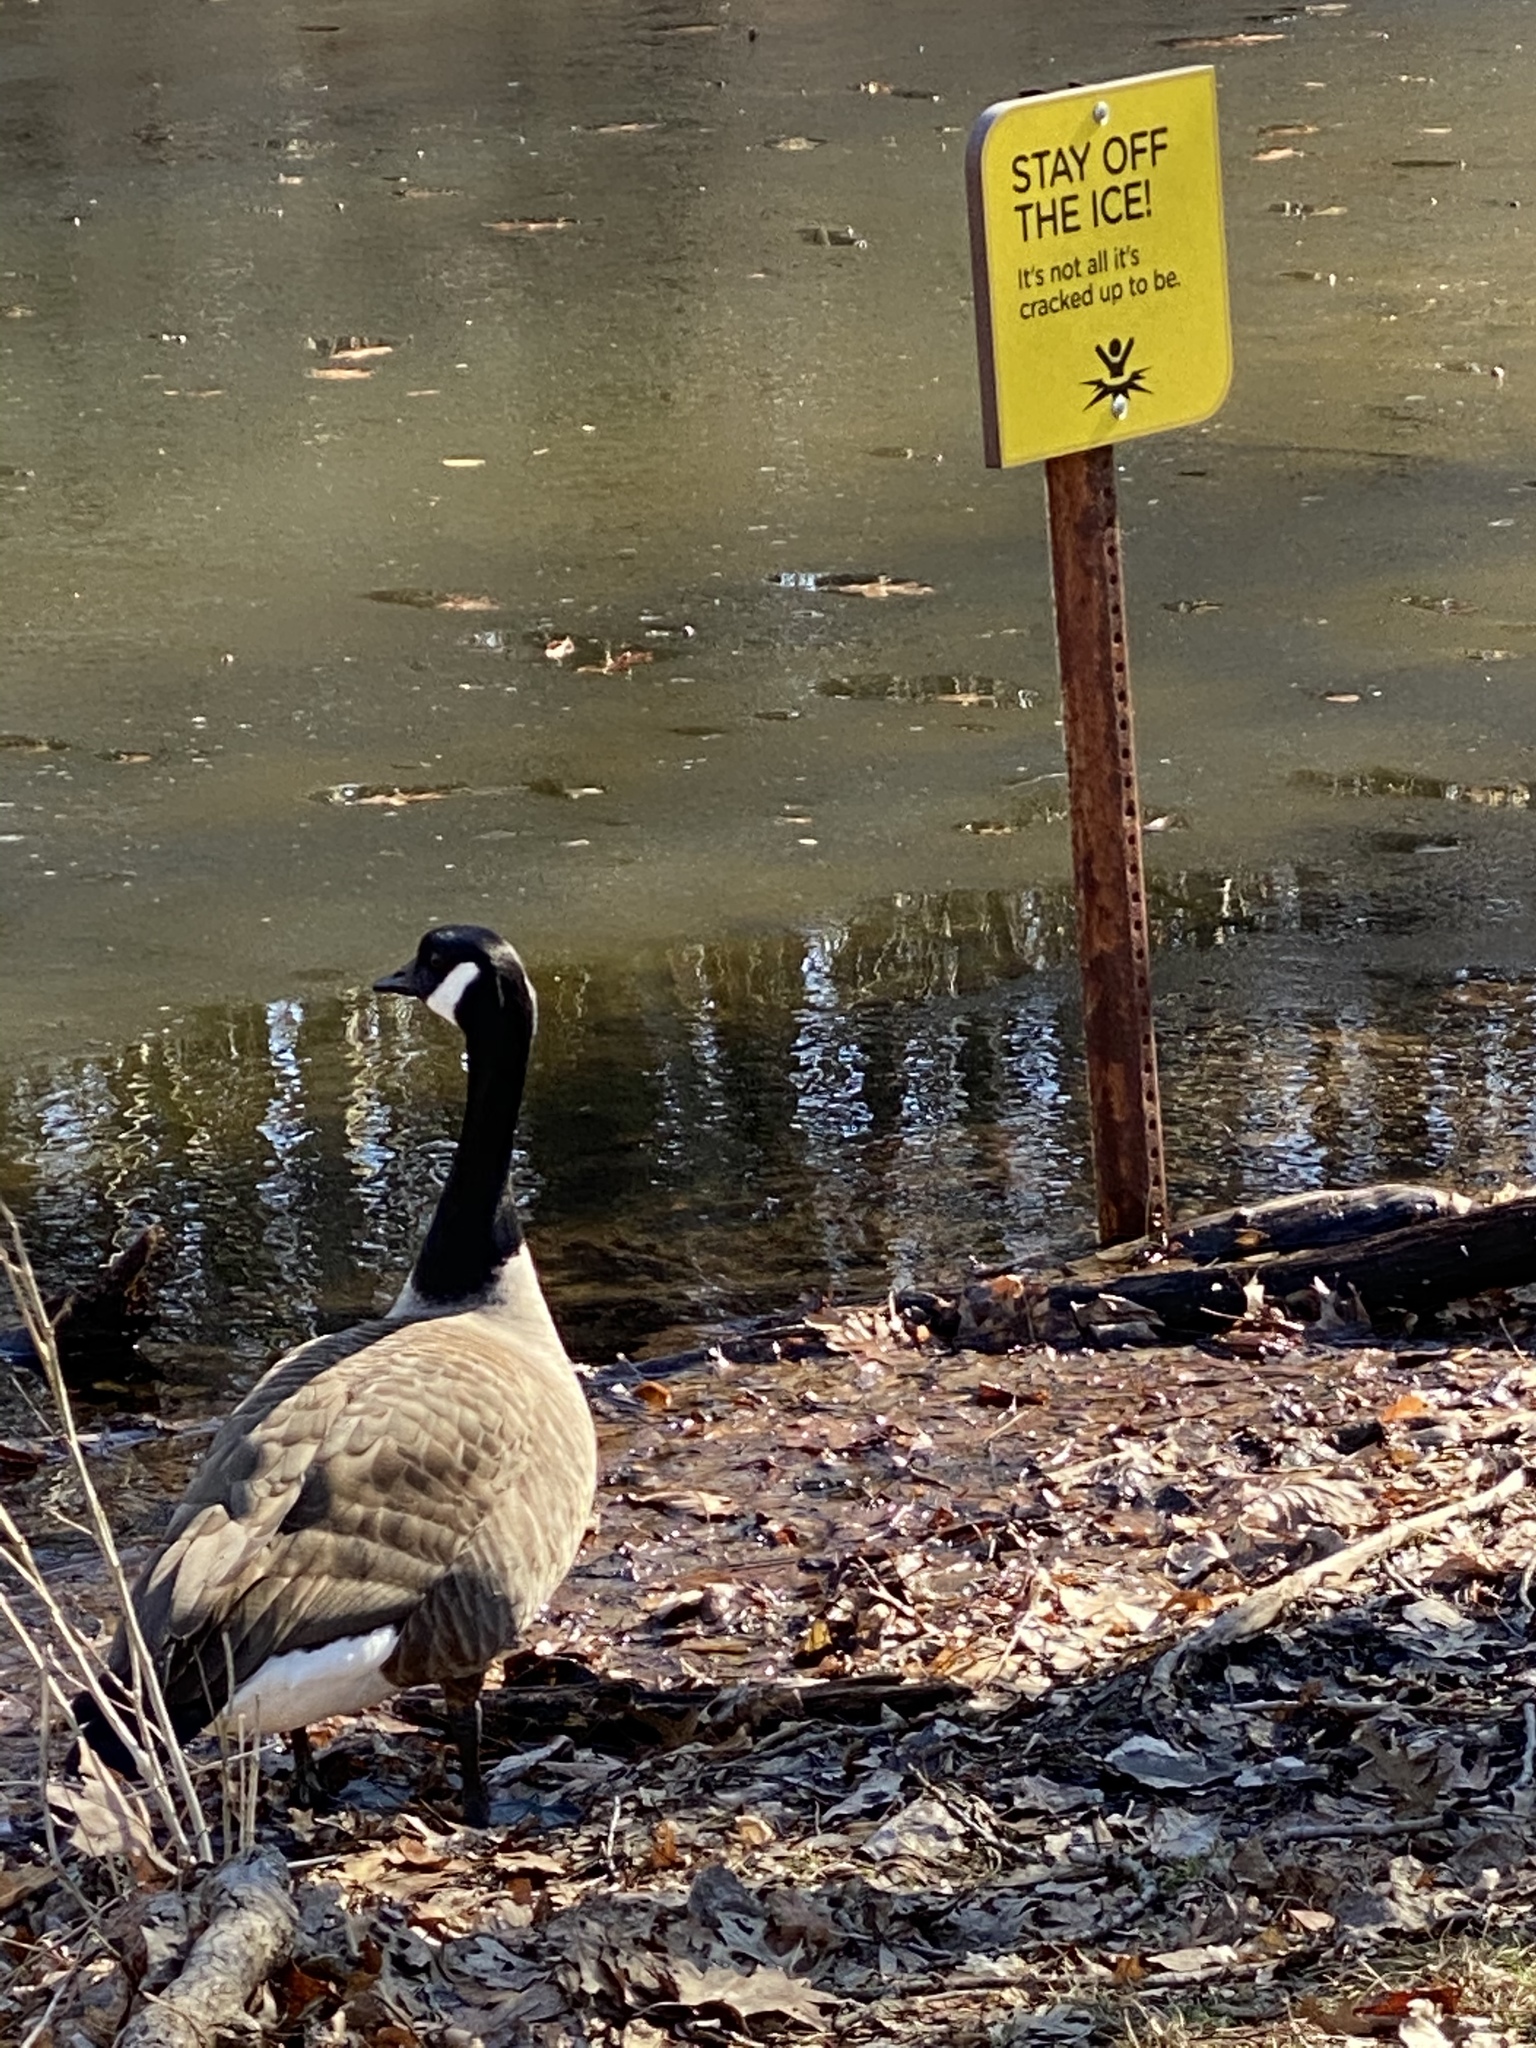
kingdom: Animalia
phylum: Chordata
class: Aves
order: Anseriformes
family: Anatidae
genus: Branta
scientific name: Branta canadensis
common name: Canada goose
